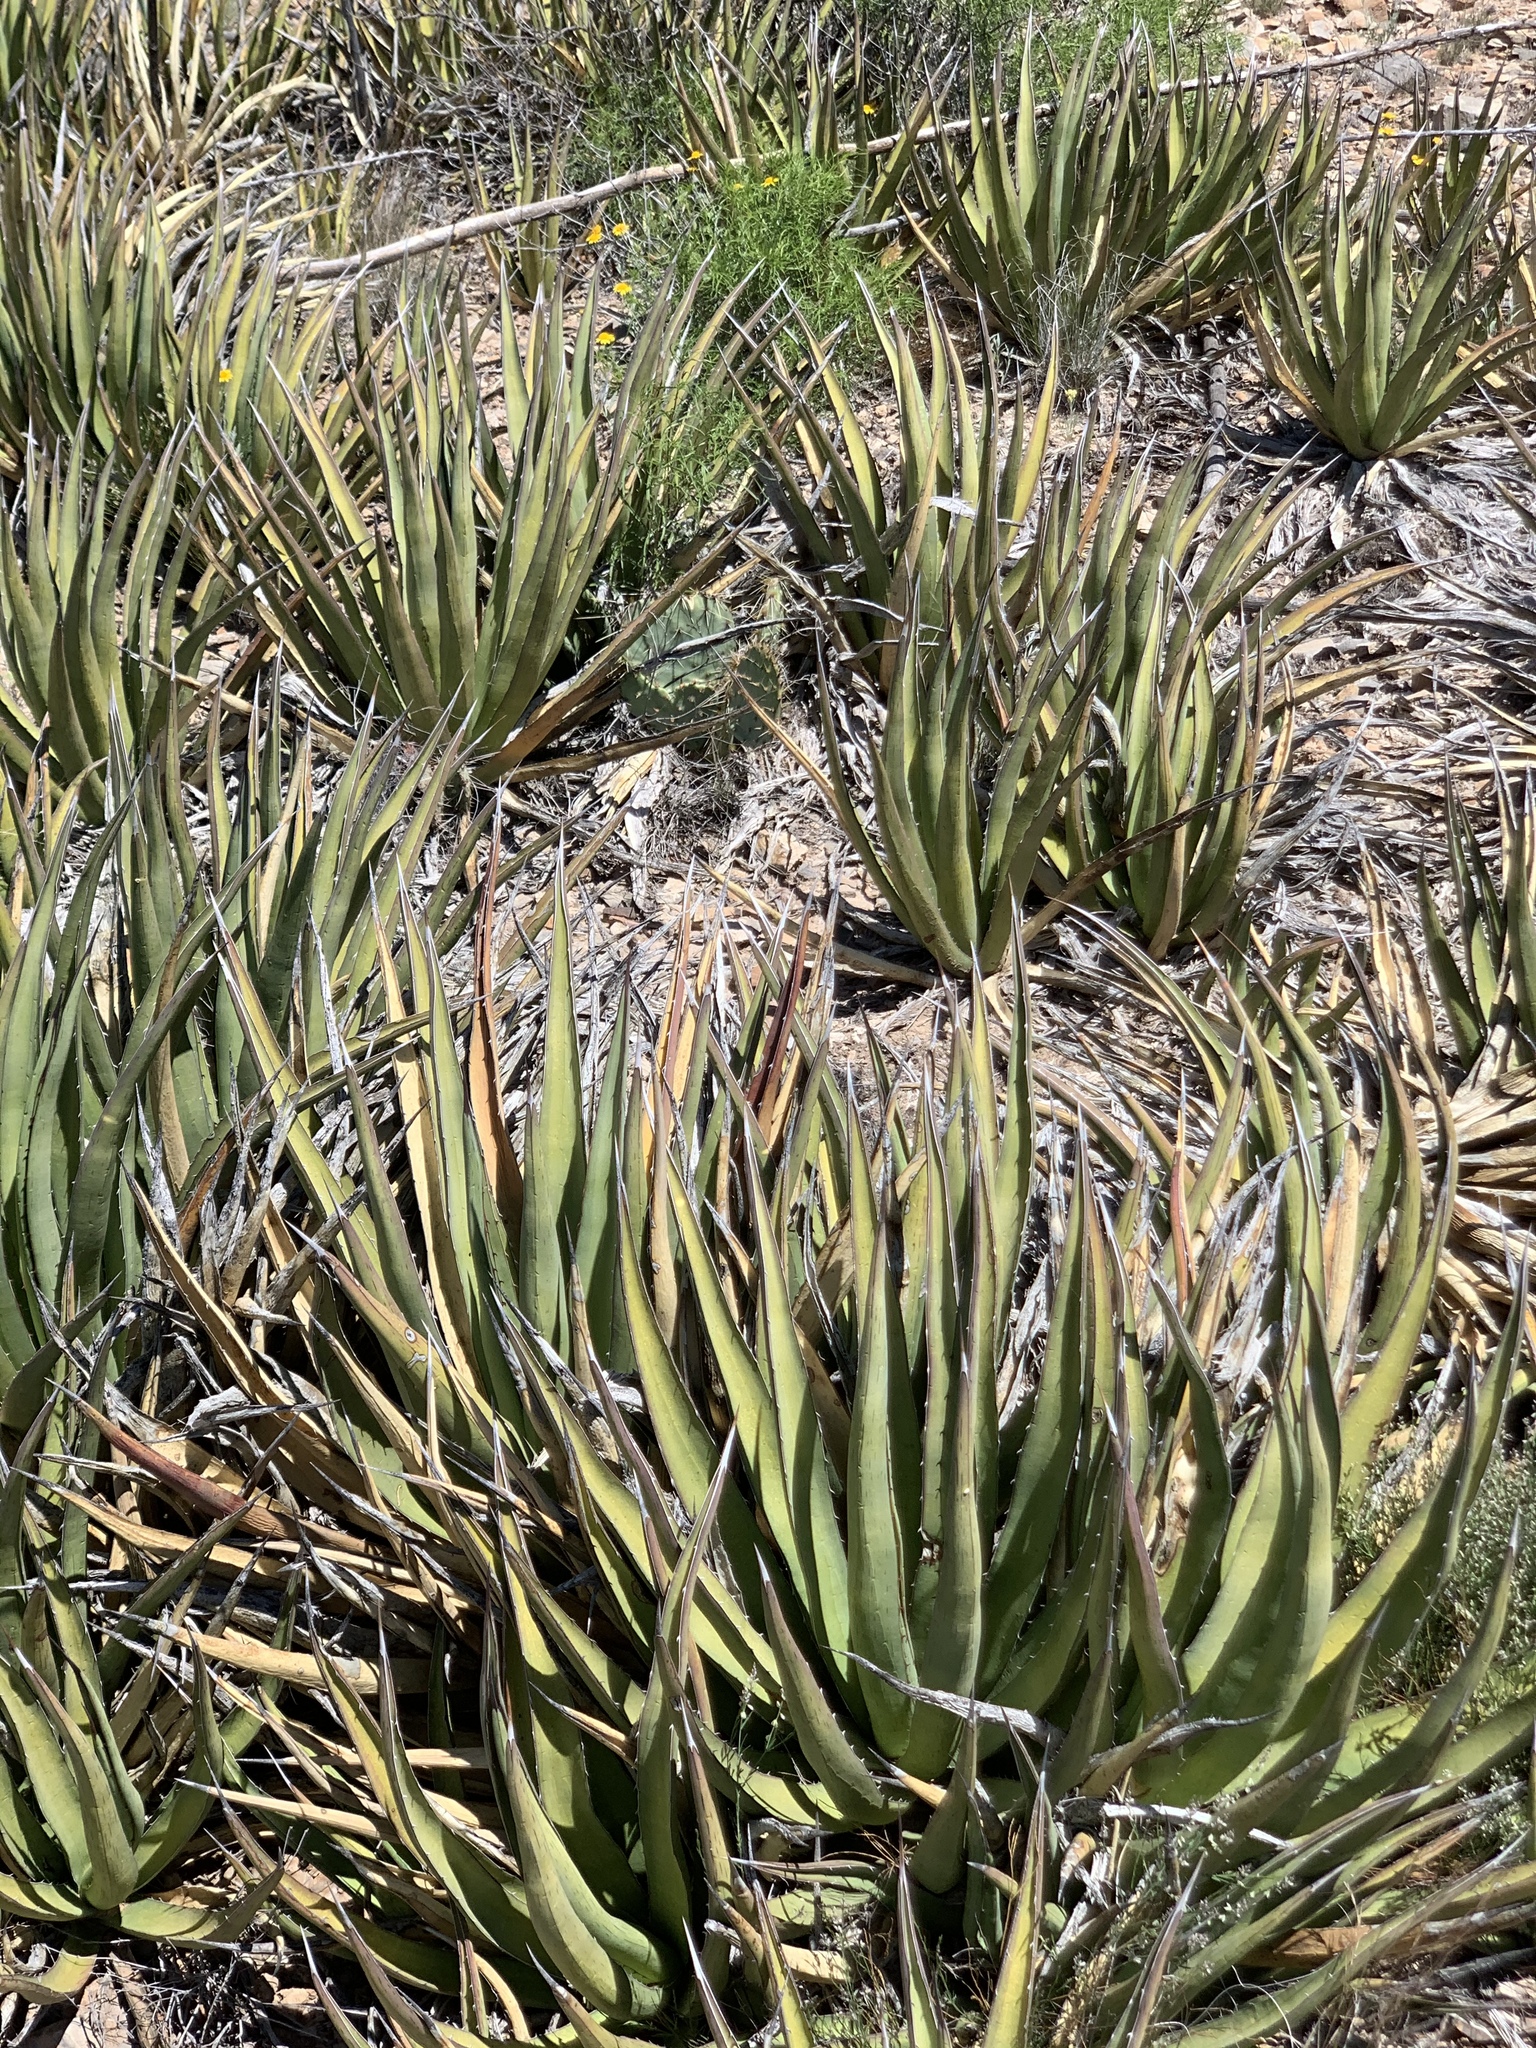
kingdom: Plantae
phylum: Tracheophyta
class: Liliopsida
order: Asparagales
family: Asparagaceae
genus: Agave
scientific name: Agave lechuguilla
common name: Lecheguilla agave
